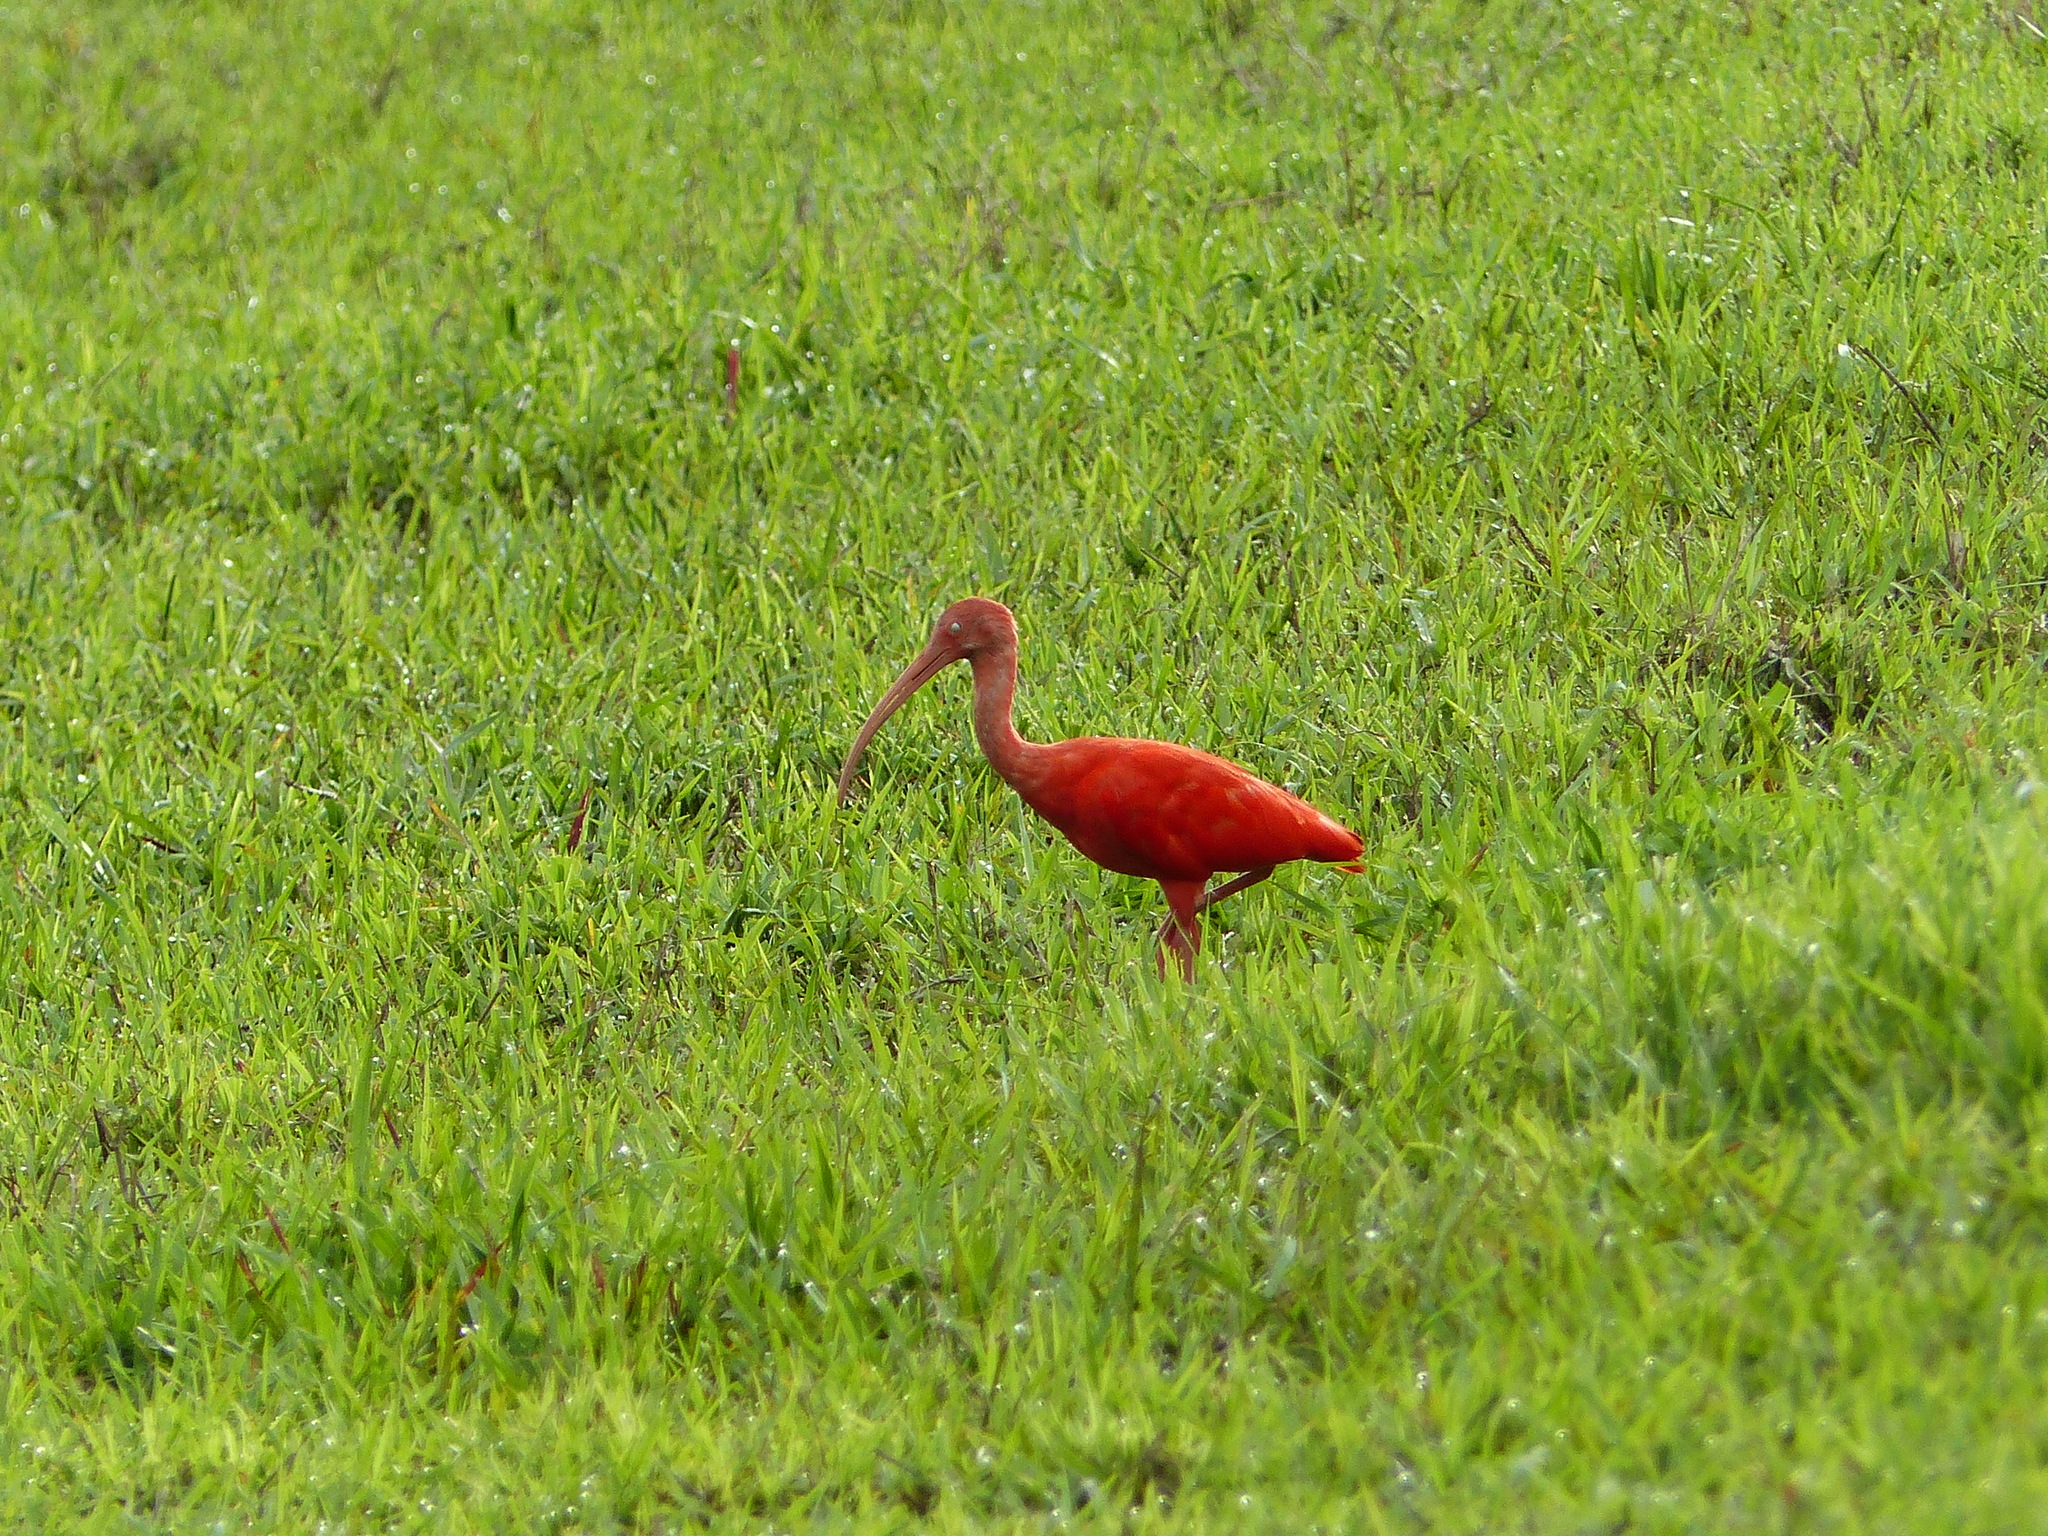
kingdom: Animalia
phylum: Chordata
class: Aves
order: Pelecaniformes
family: Threskiornithidae
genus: Eudocimus
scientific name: Eudocimus ruber
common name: Scarlet ibis
